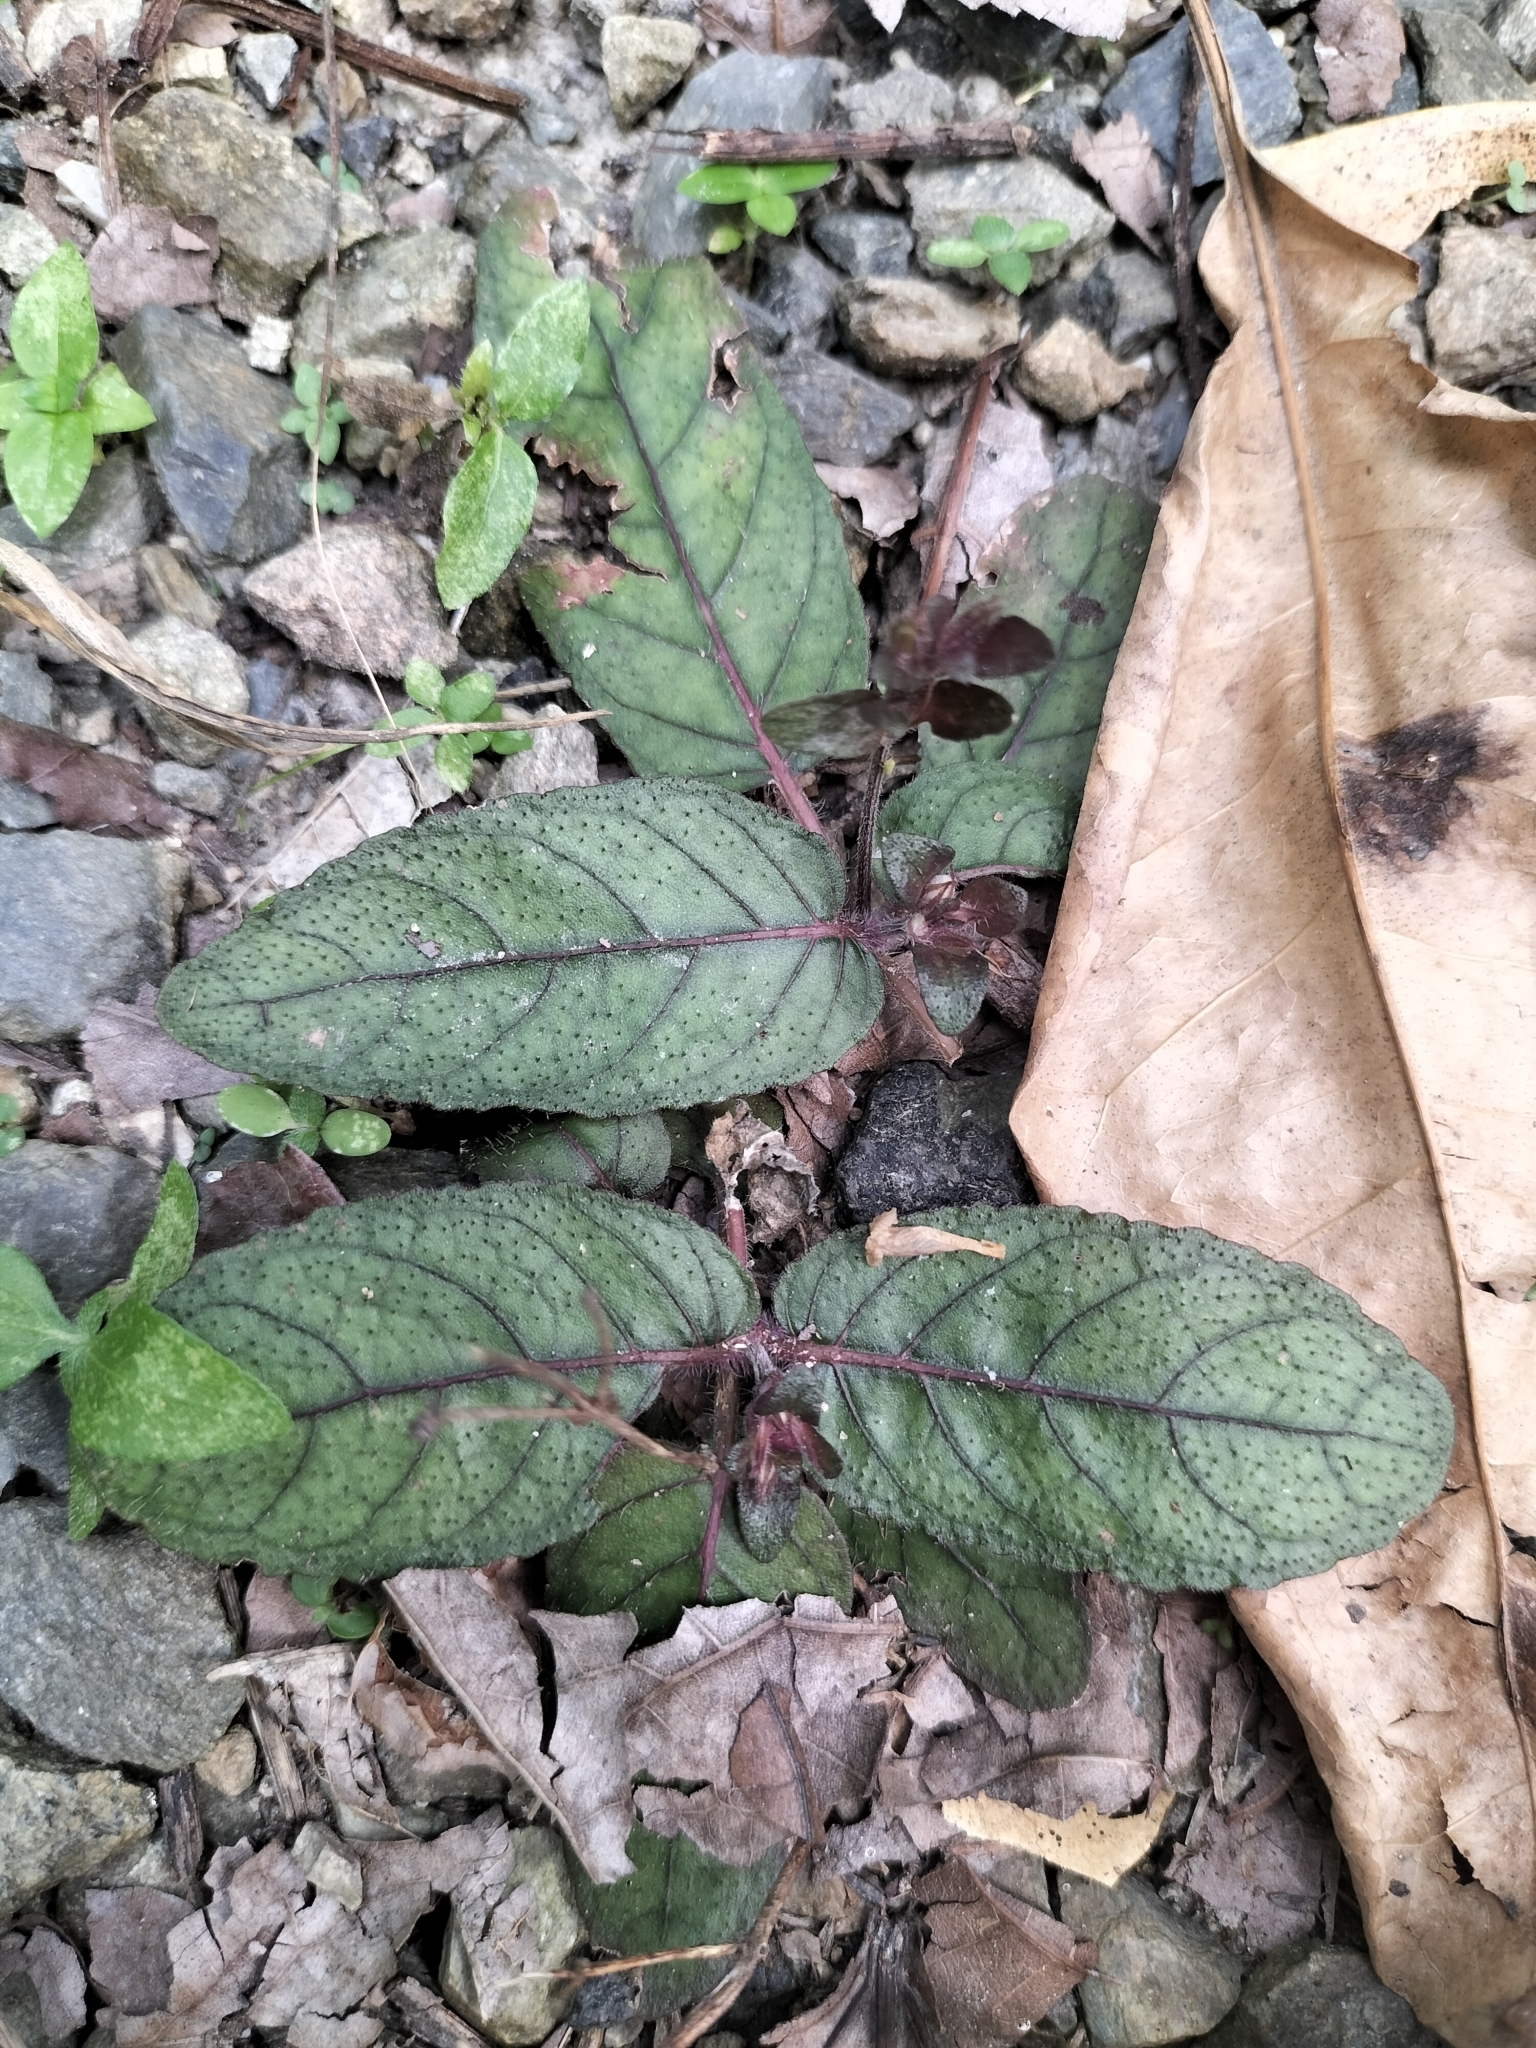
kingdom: Plantae
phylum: Tracheophyta
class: Magnoliopsida
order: Lamiales
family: Acanthaceae
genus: Strobilanthes
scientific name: Strobilanthes reptans
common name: Acanthaceae
